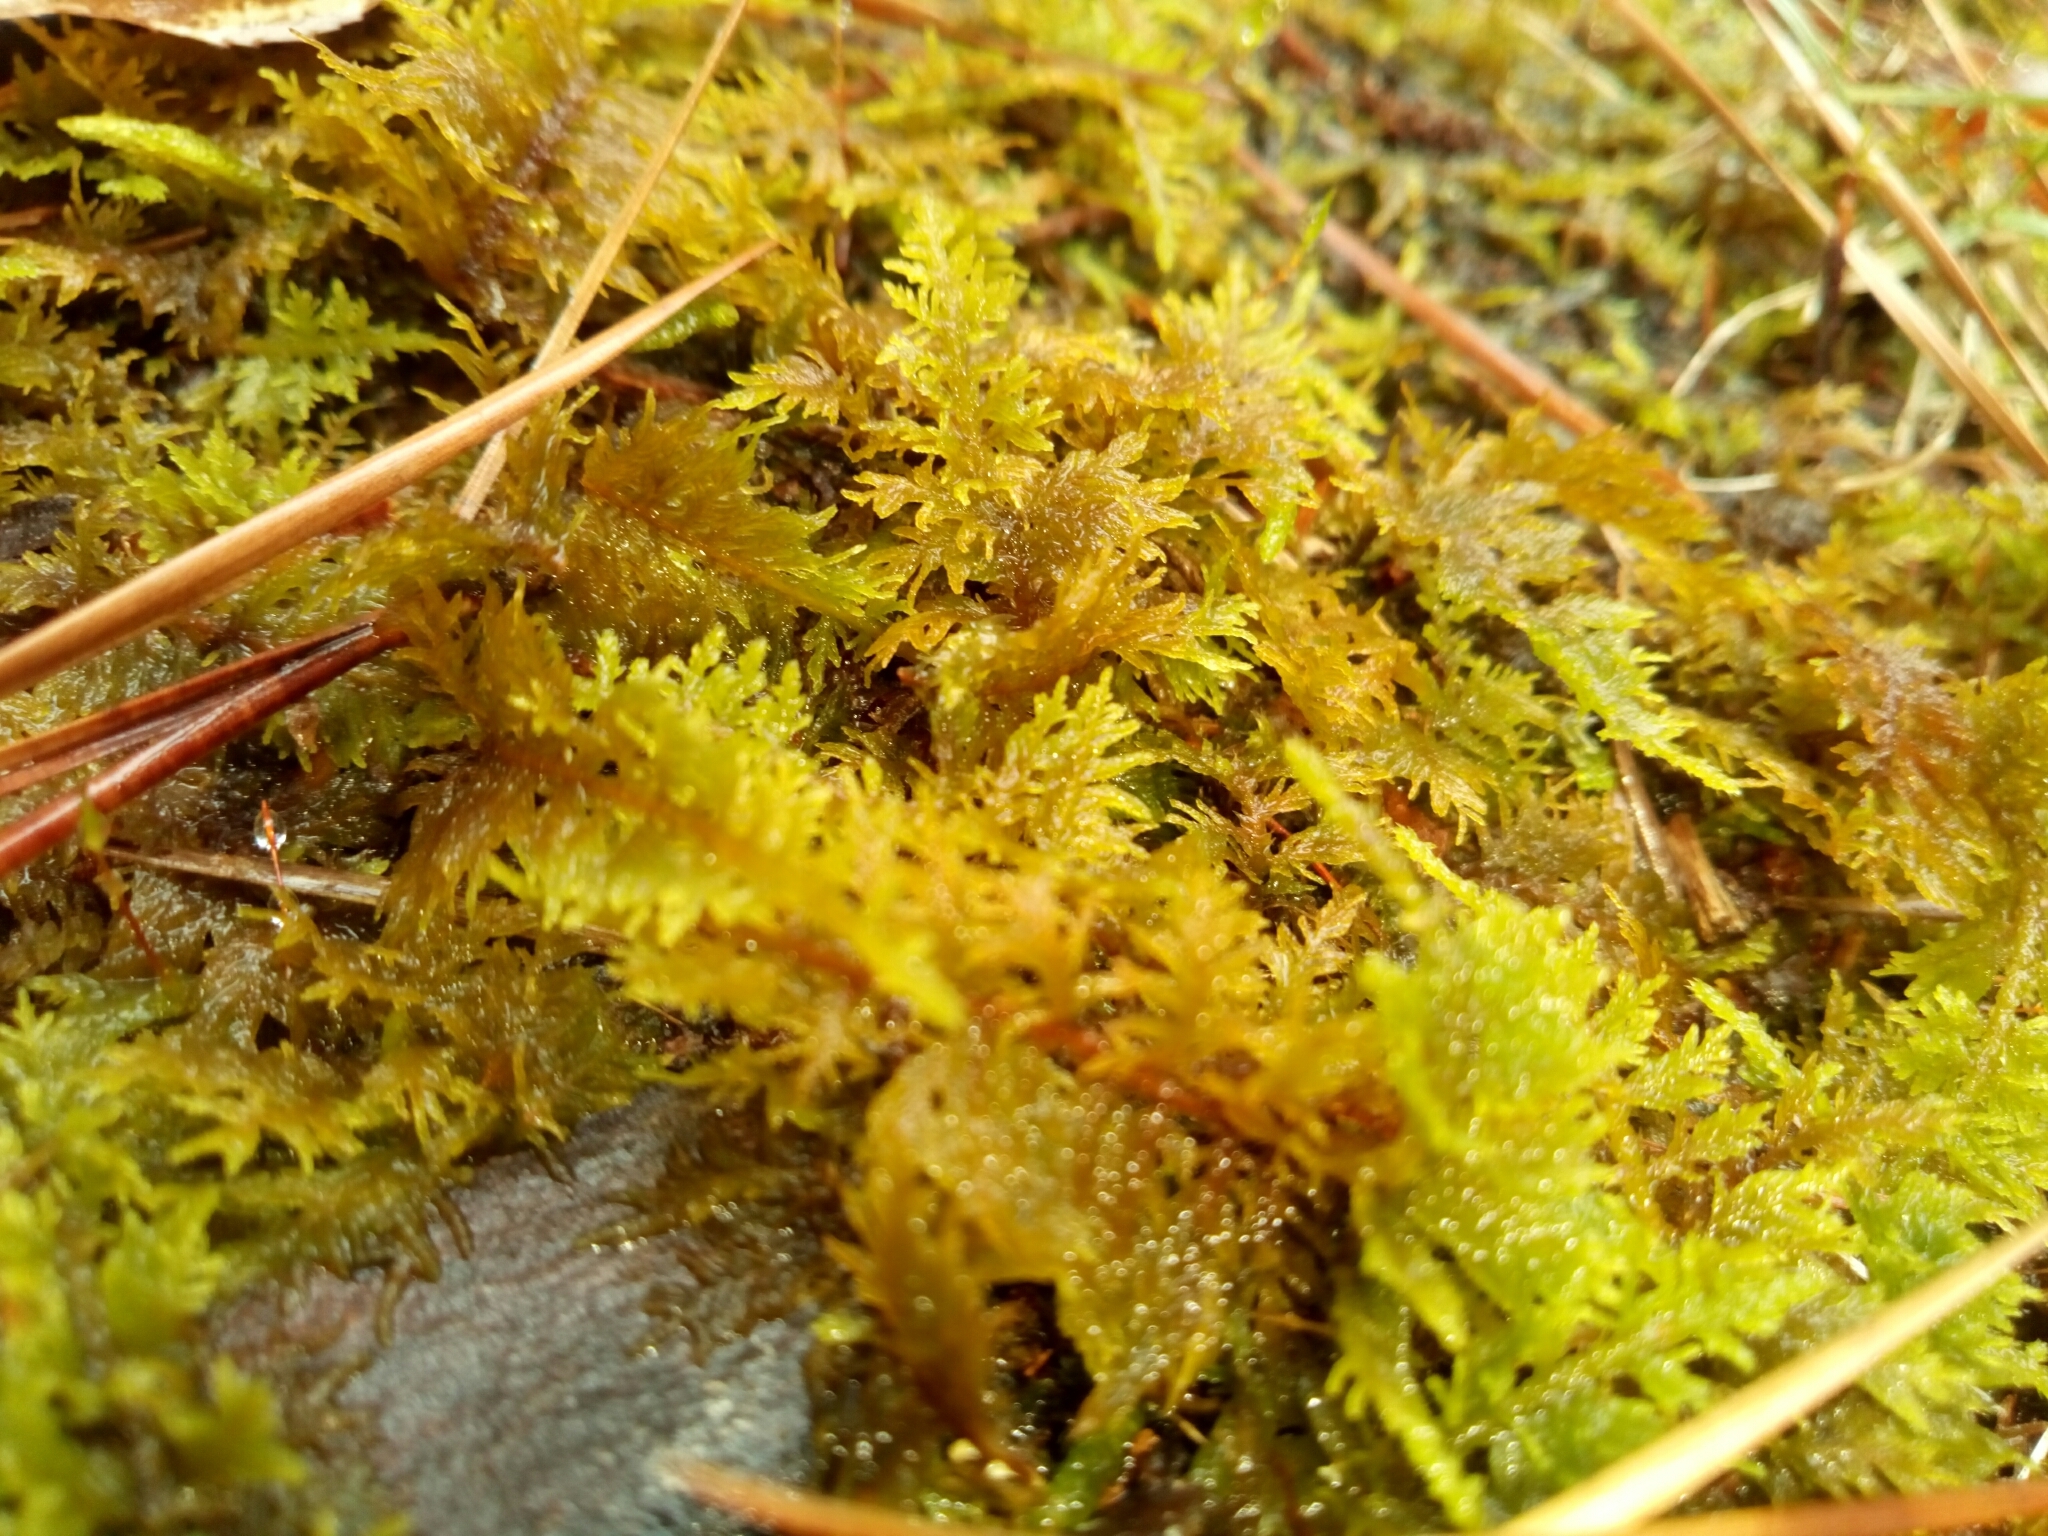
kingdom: Plantae
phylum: Bryophyta
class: Bryopsida
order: Hypnales
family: Thuidiaceae
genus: Thuidium
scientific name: Thuidium delicatulum
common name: Delicate fern moss
